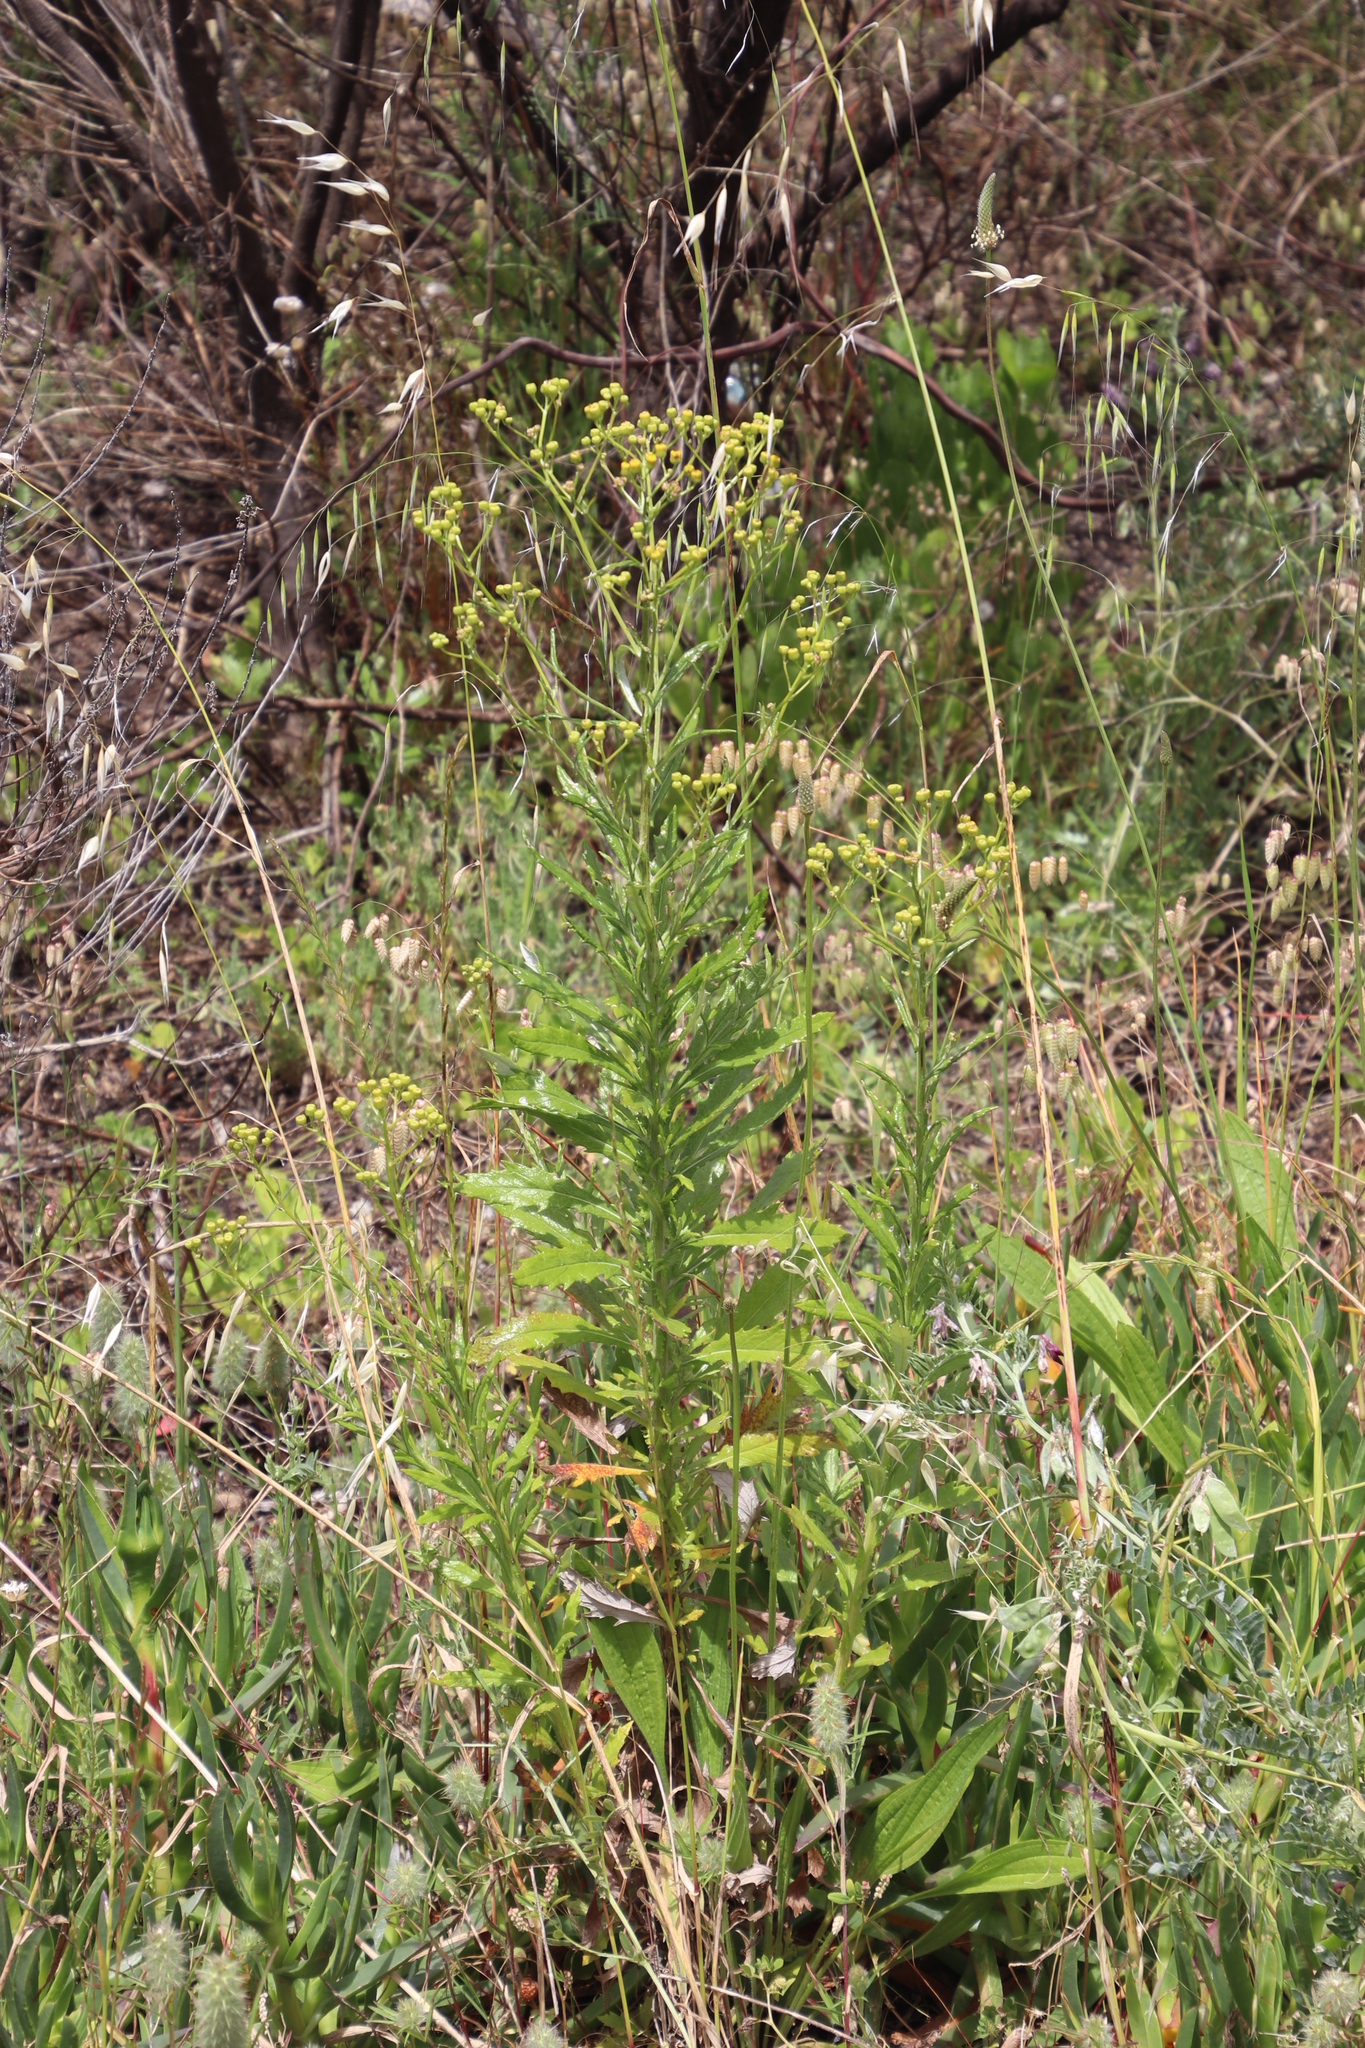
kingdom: Plantae
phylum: Tracheophyta
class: Magnoliopsida
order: Asterales
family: Asteraceae
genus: Senecio
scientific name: Senecio pterophorus
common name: Shoddy ragwort
